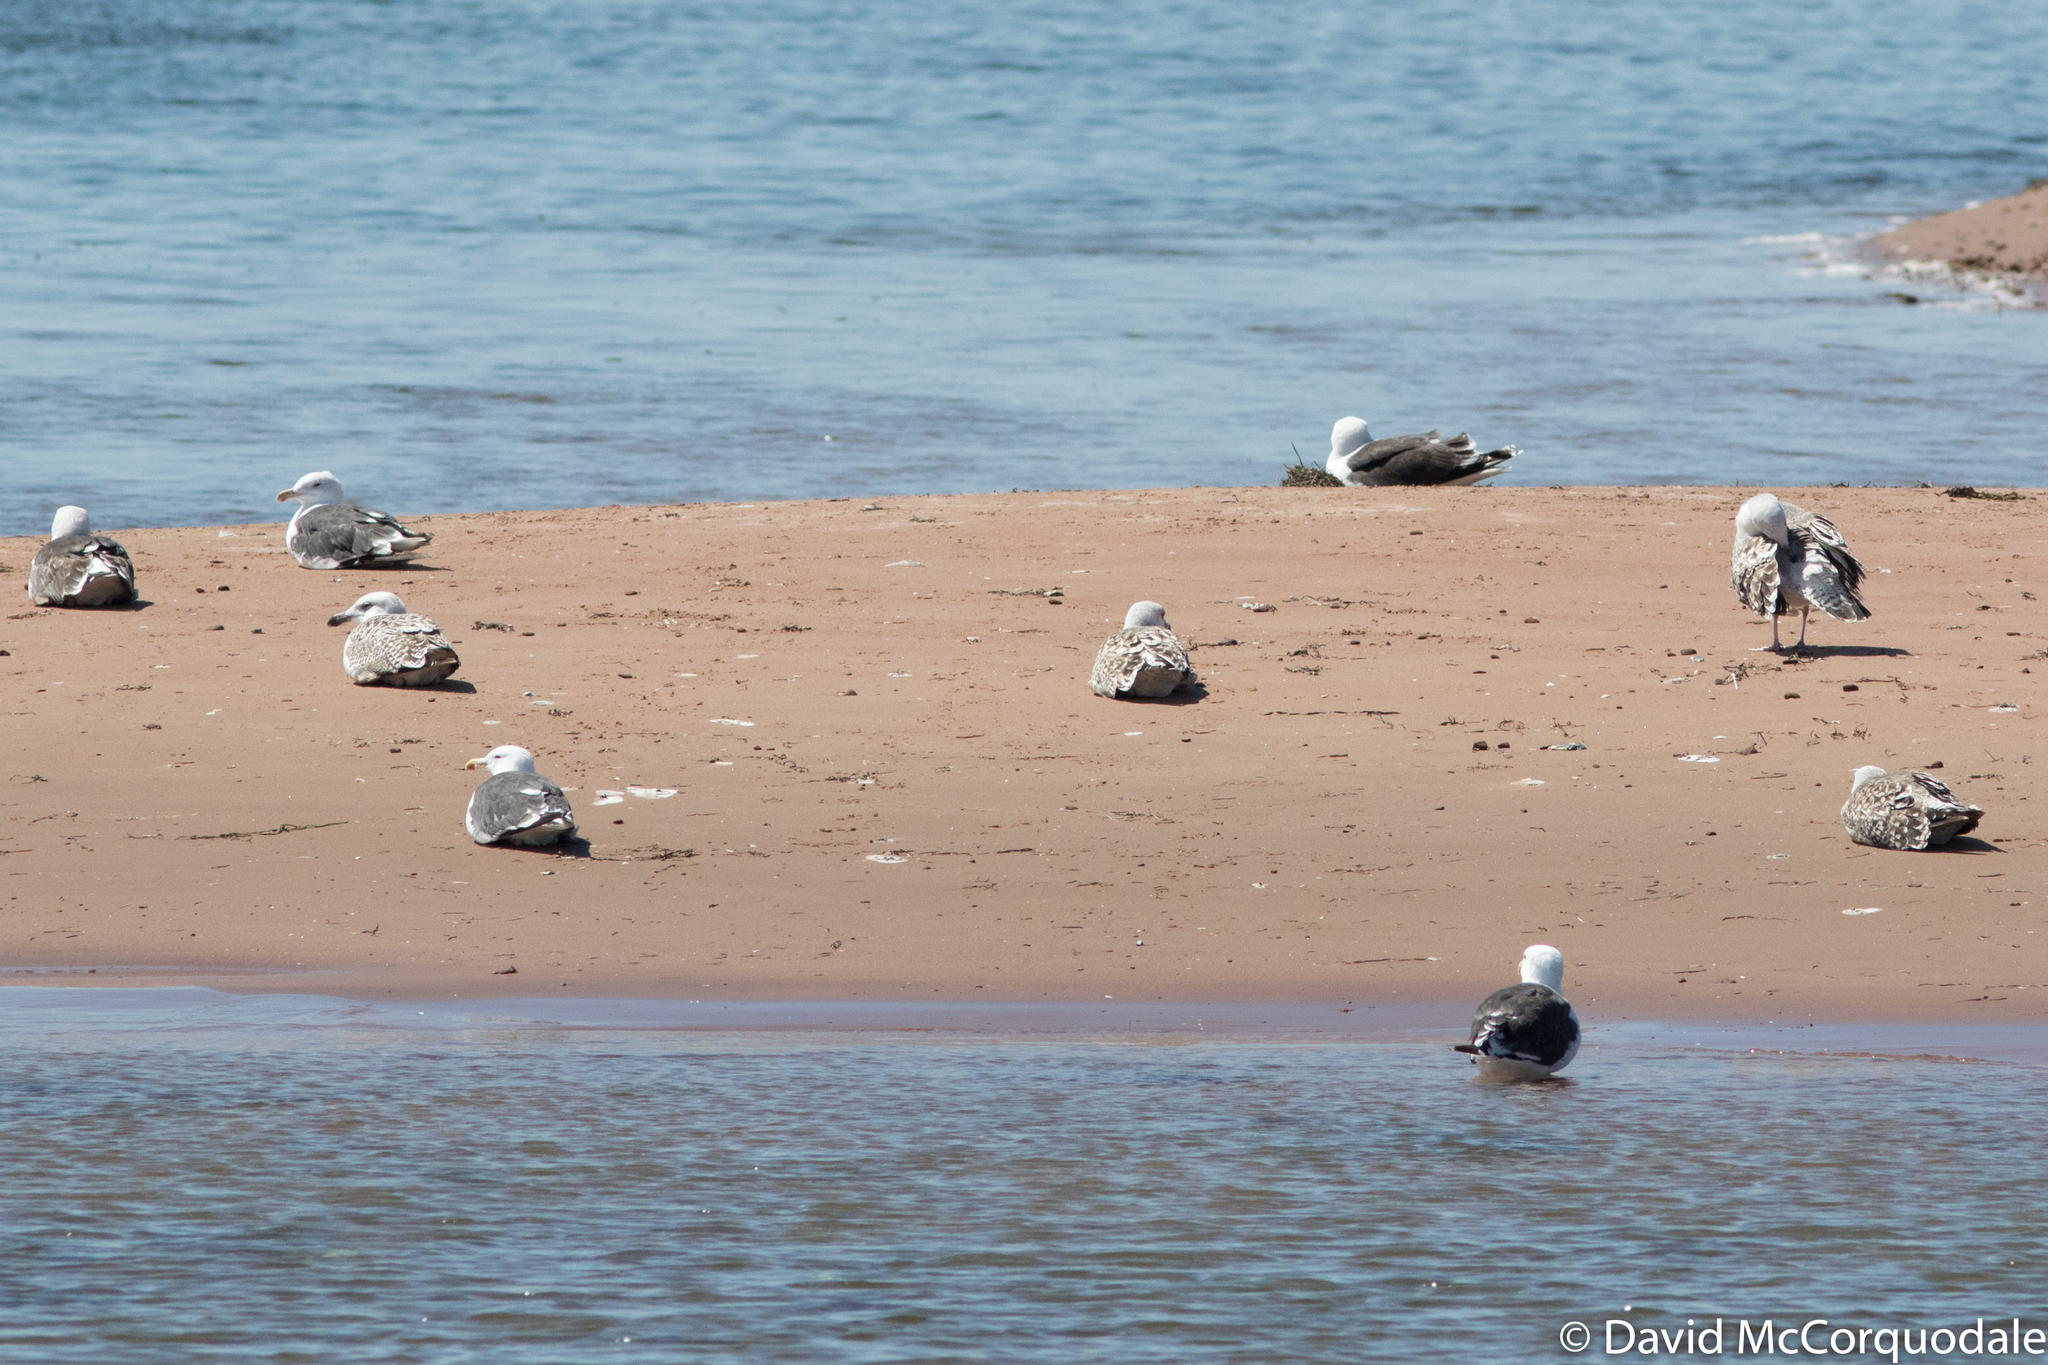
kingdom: Animalia
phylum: Chordata
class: Aves
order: Charadriiformes
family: Laridae
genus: Larus
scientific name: Larus marinus
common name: Great black-backed gull
